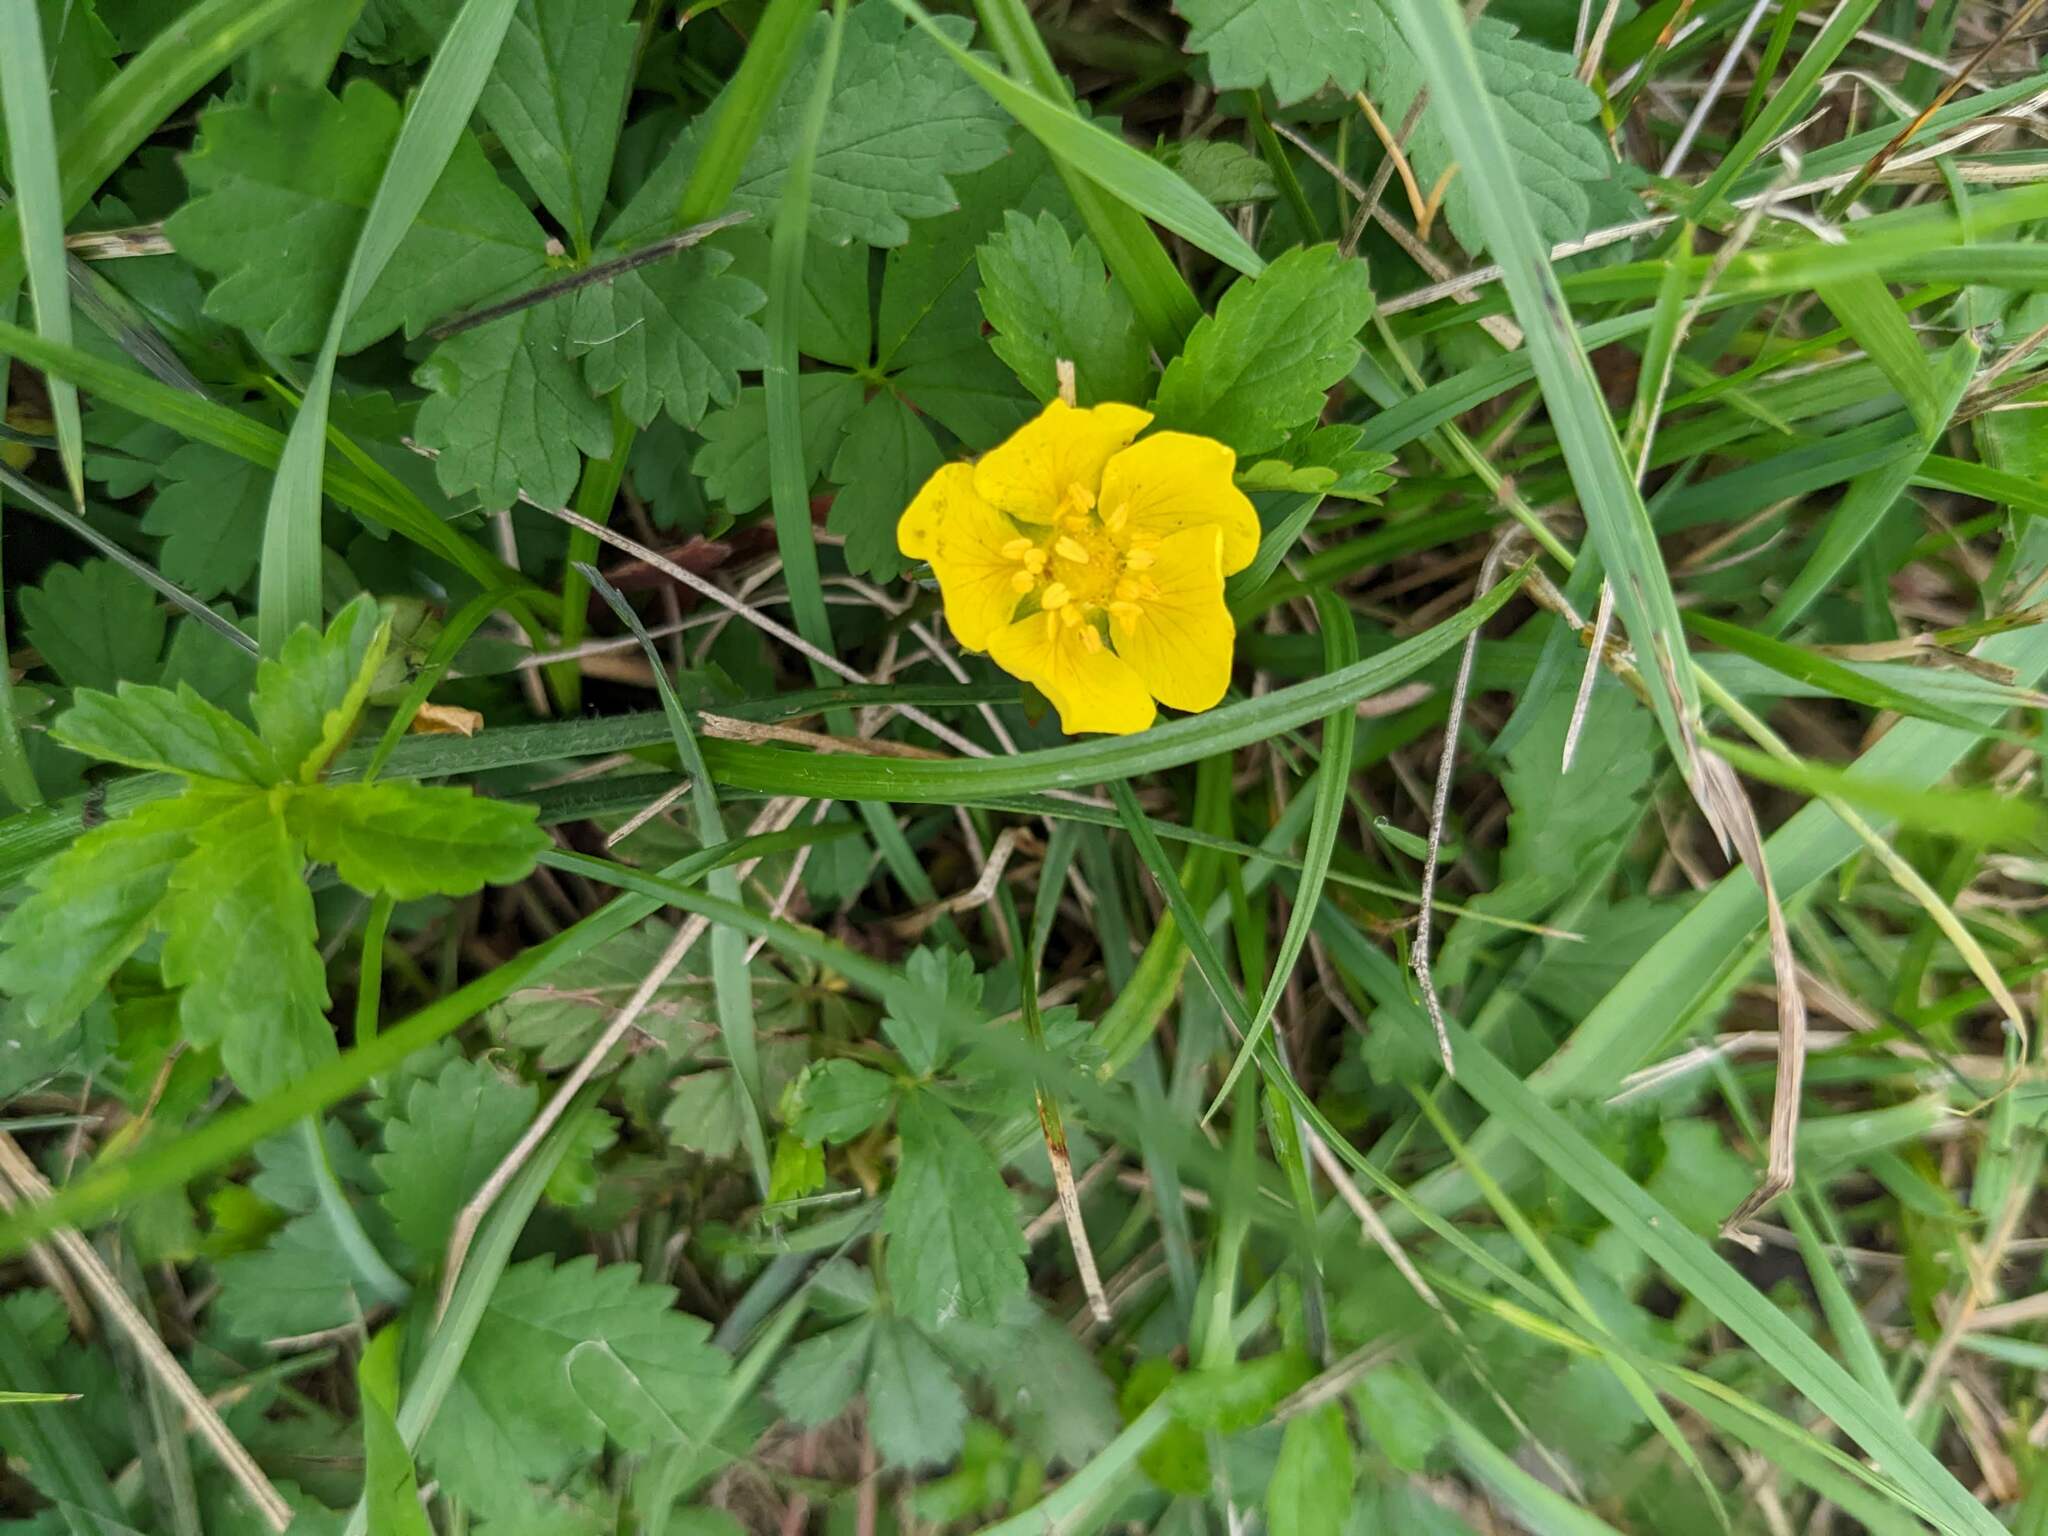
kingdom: Plantae
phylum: Tracheophyta
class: Magnoliopsida
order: Rosales
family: Rosaceae
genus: Potentilla
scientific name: Potentilla reptans
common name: Creeping cinquefoil
